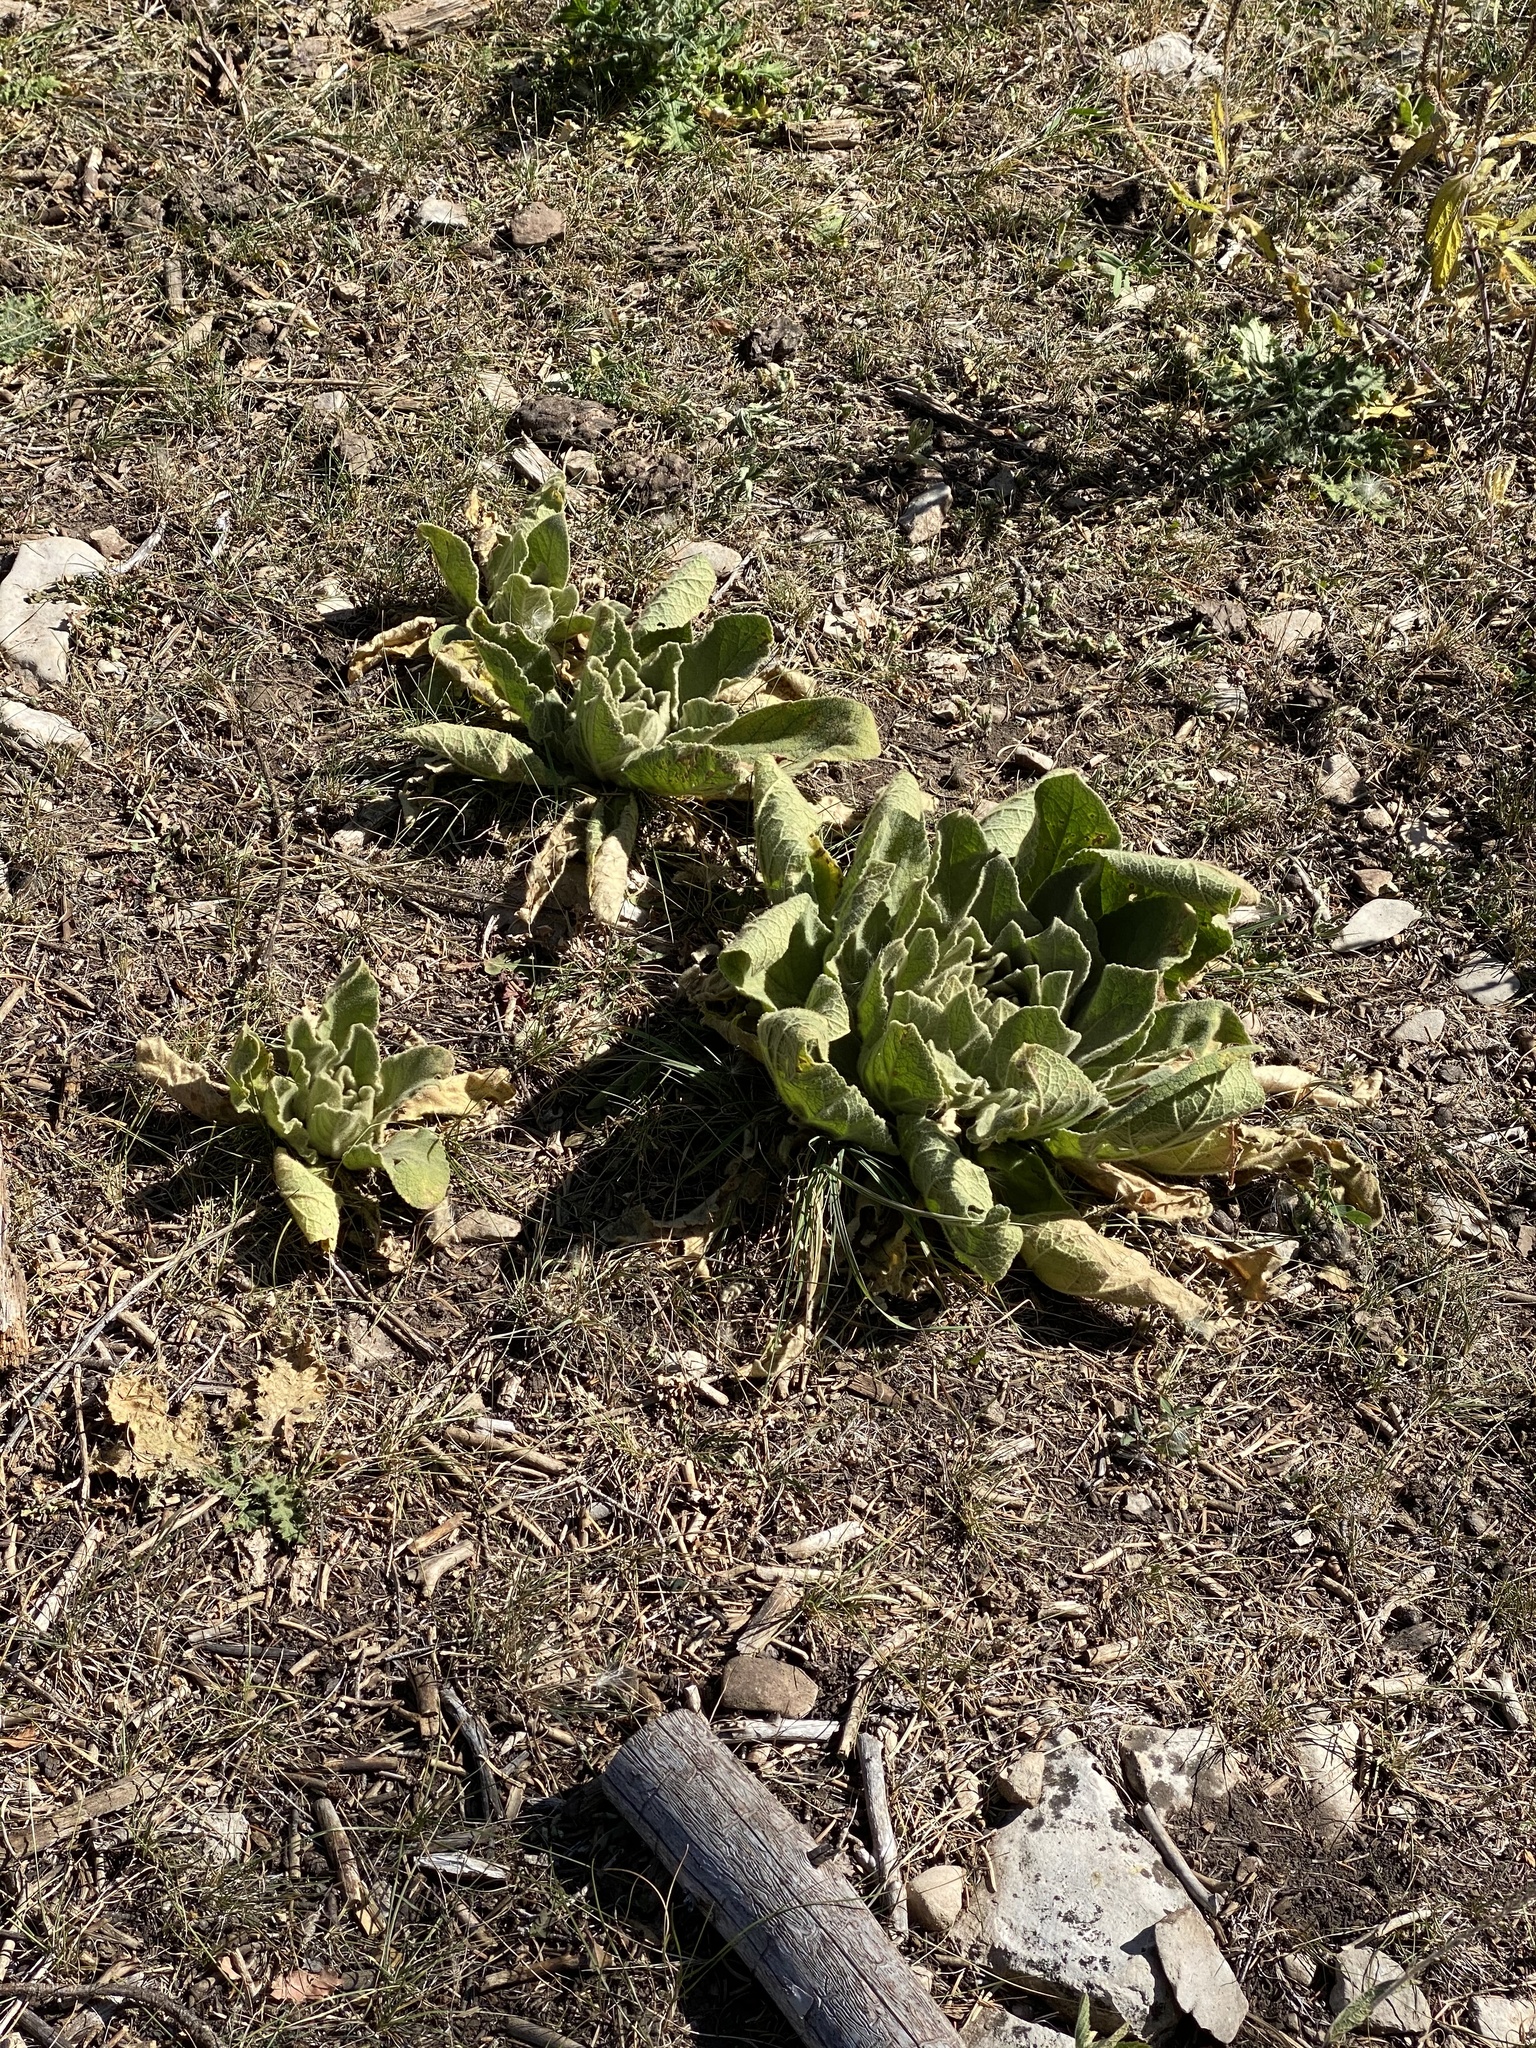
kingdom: Plantae
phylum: Tracheophyta
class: Magnoliopsida
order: Lamiales
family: Scrophulariaceae
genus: Verbascum
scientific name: Verbascum thapsus
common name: Common mullein
